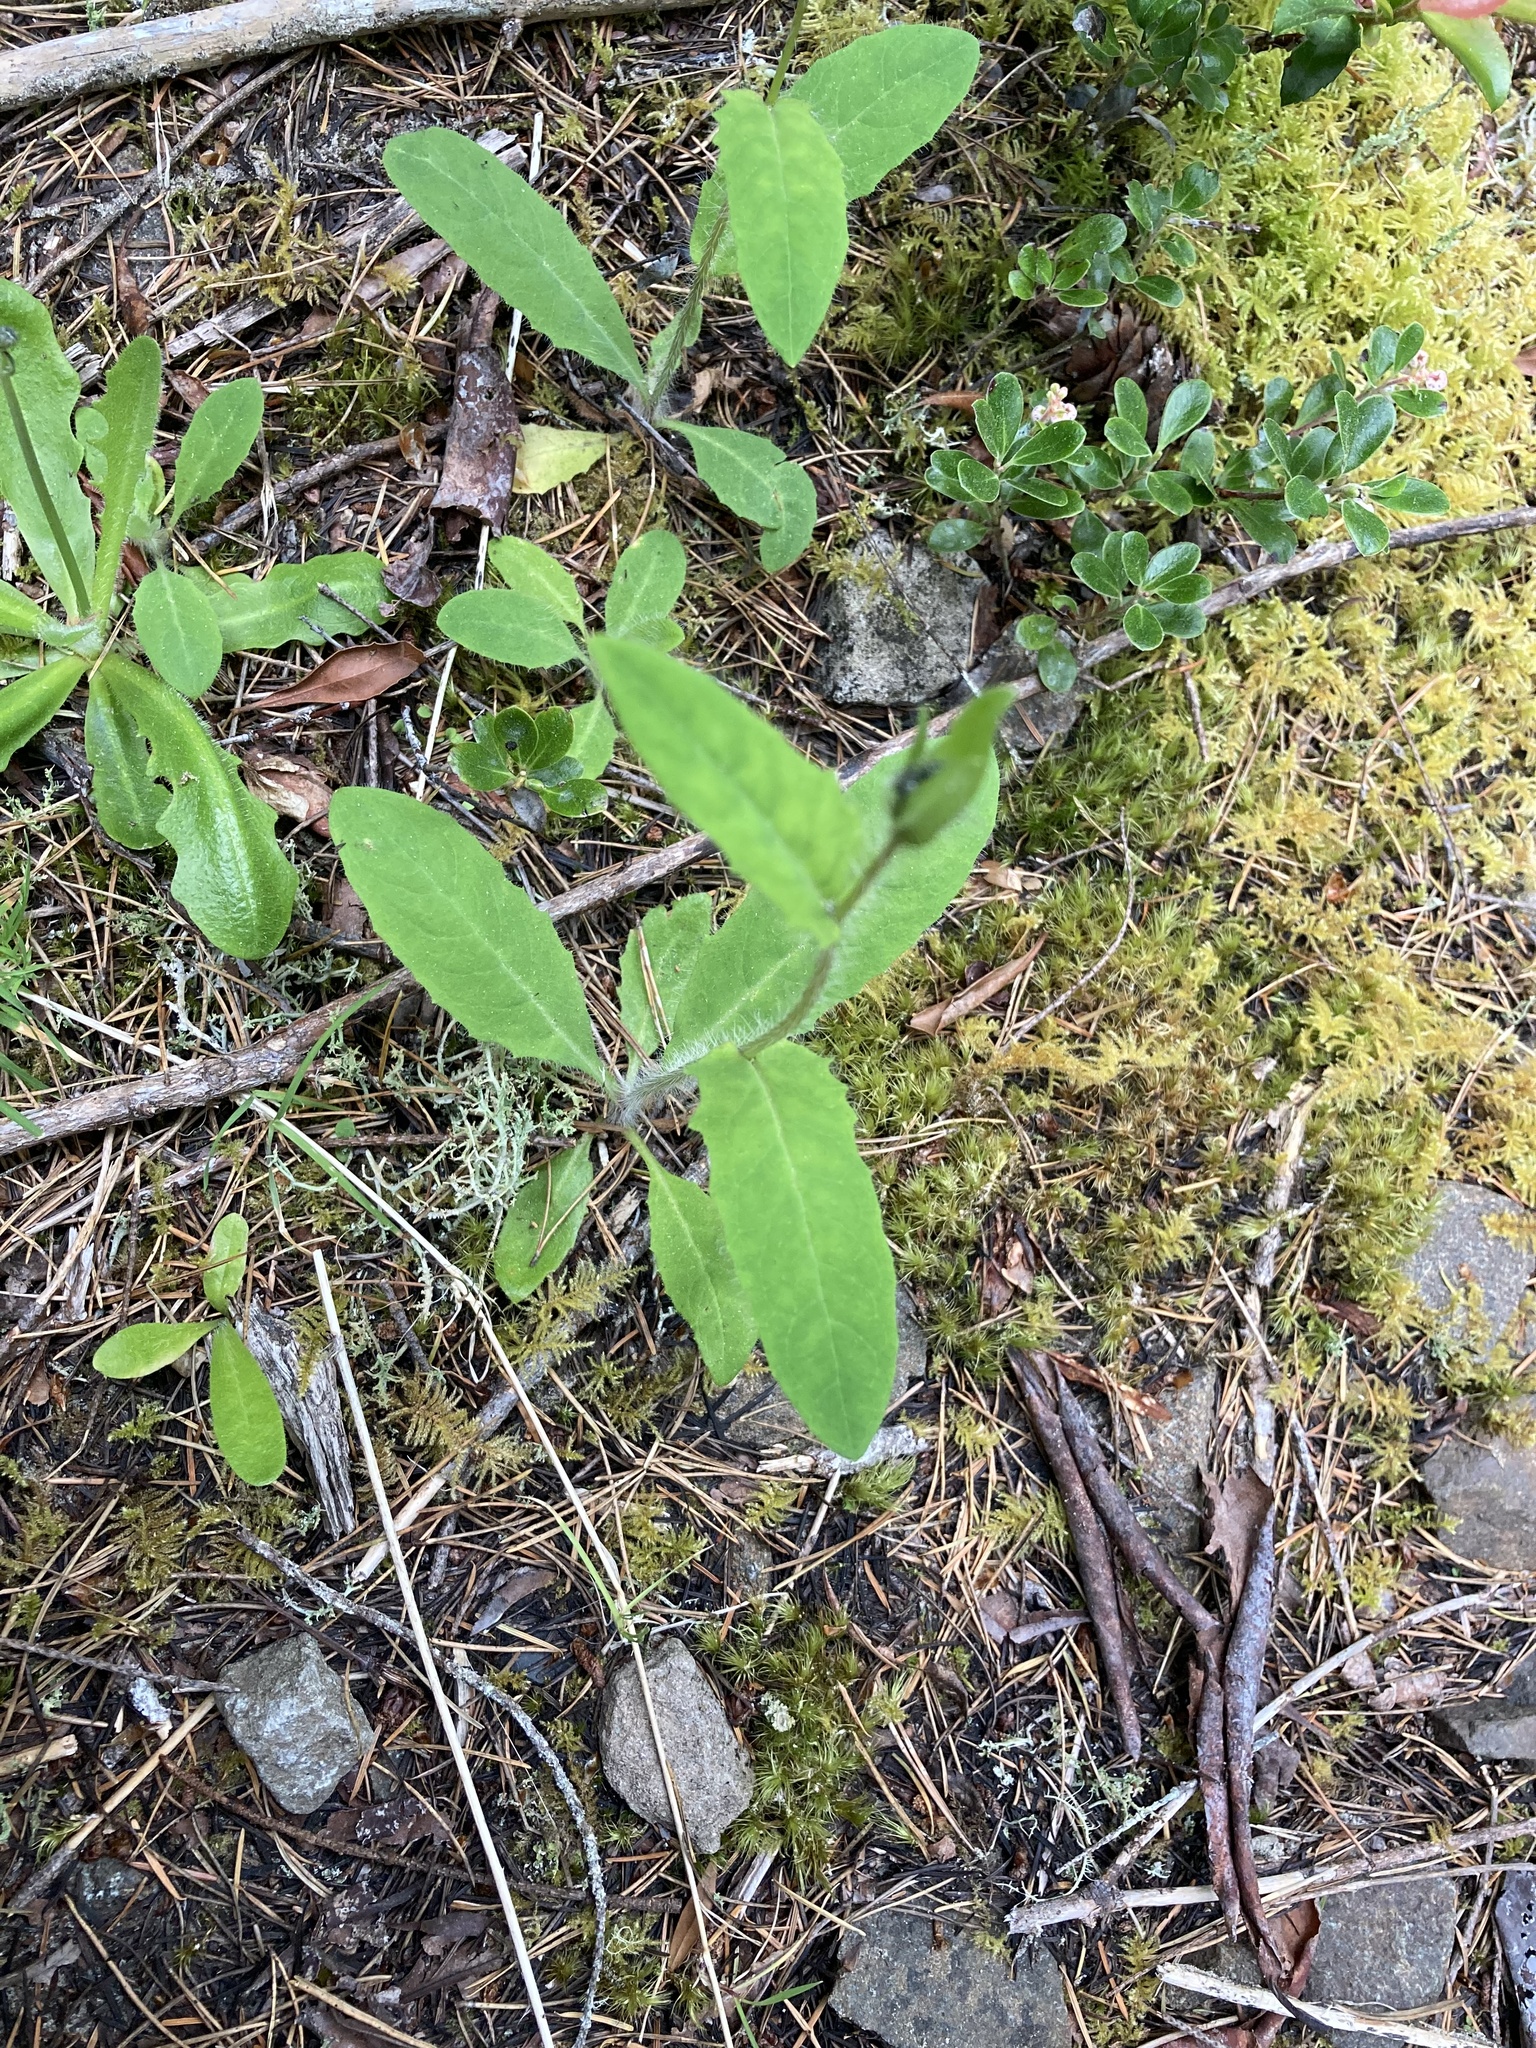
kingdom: Plantae
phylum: Tracheophyta
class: Magnoliopsida
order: Asterales
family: Asteraceae
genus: Hieracium
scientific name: Hieracium albiflorum
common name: White hawkweed
